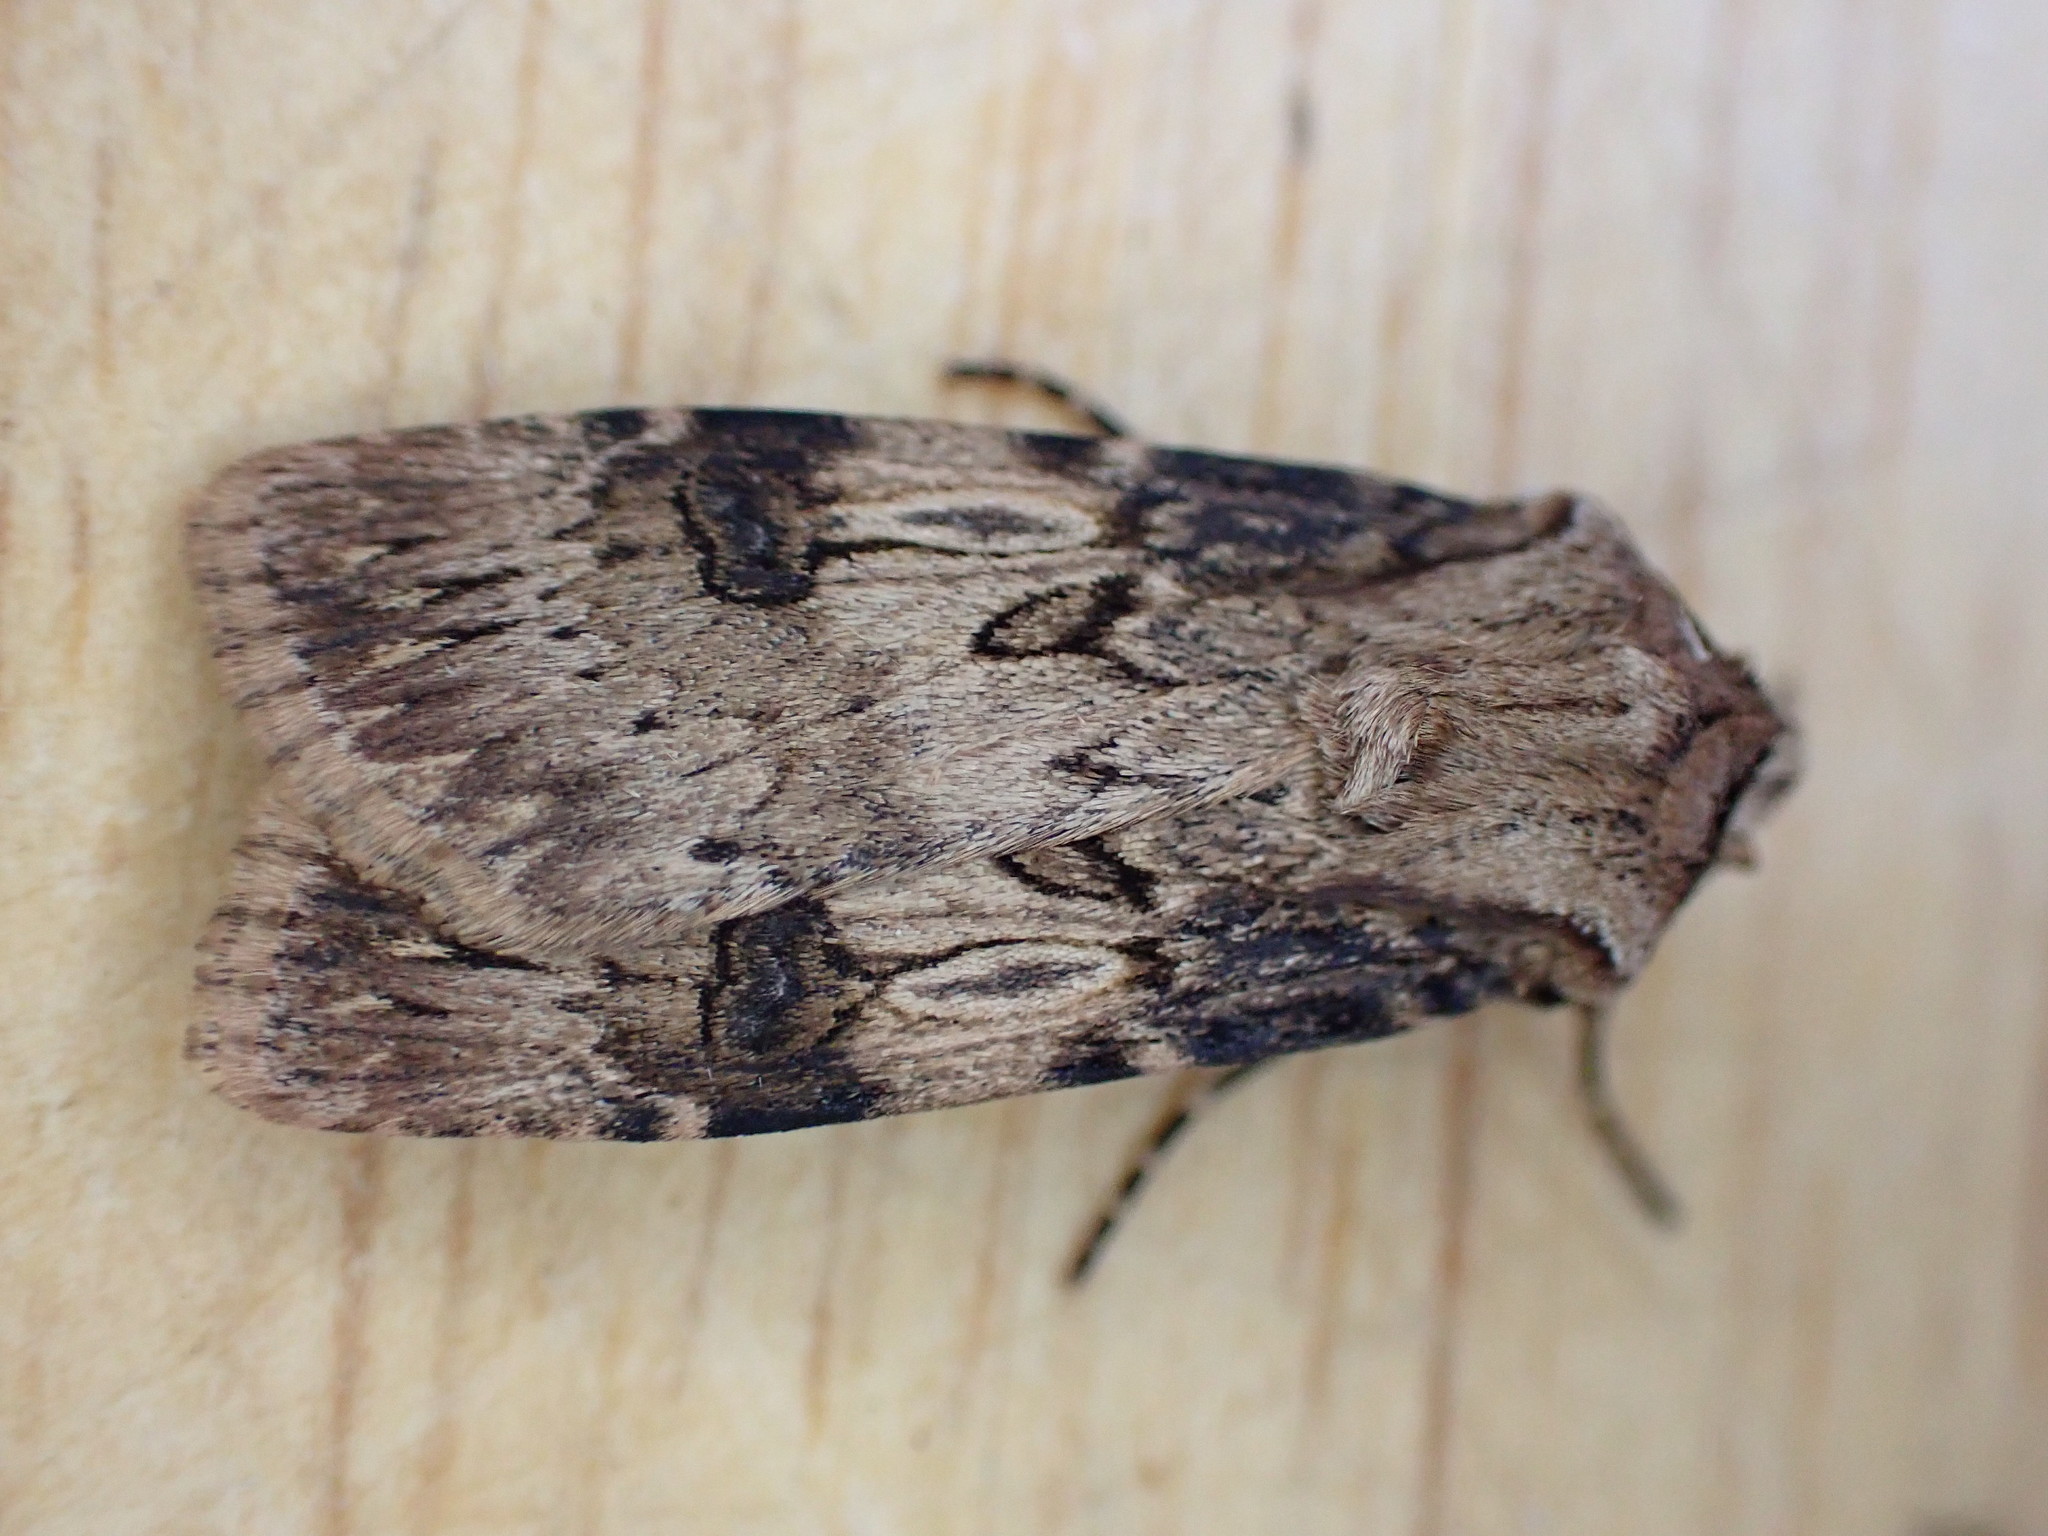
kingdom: Animalia
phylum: Arthropoda
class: Insecta
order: Lepidoptera
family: Noctuidae
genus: Agrotis
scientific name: Agrotis puta
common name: Shuttle-shaped dart
